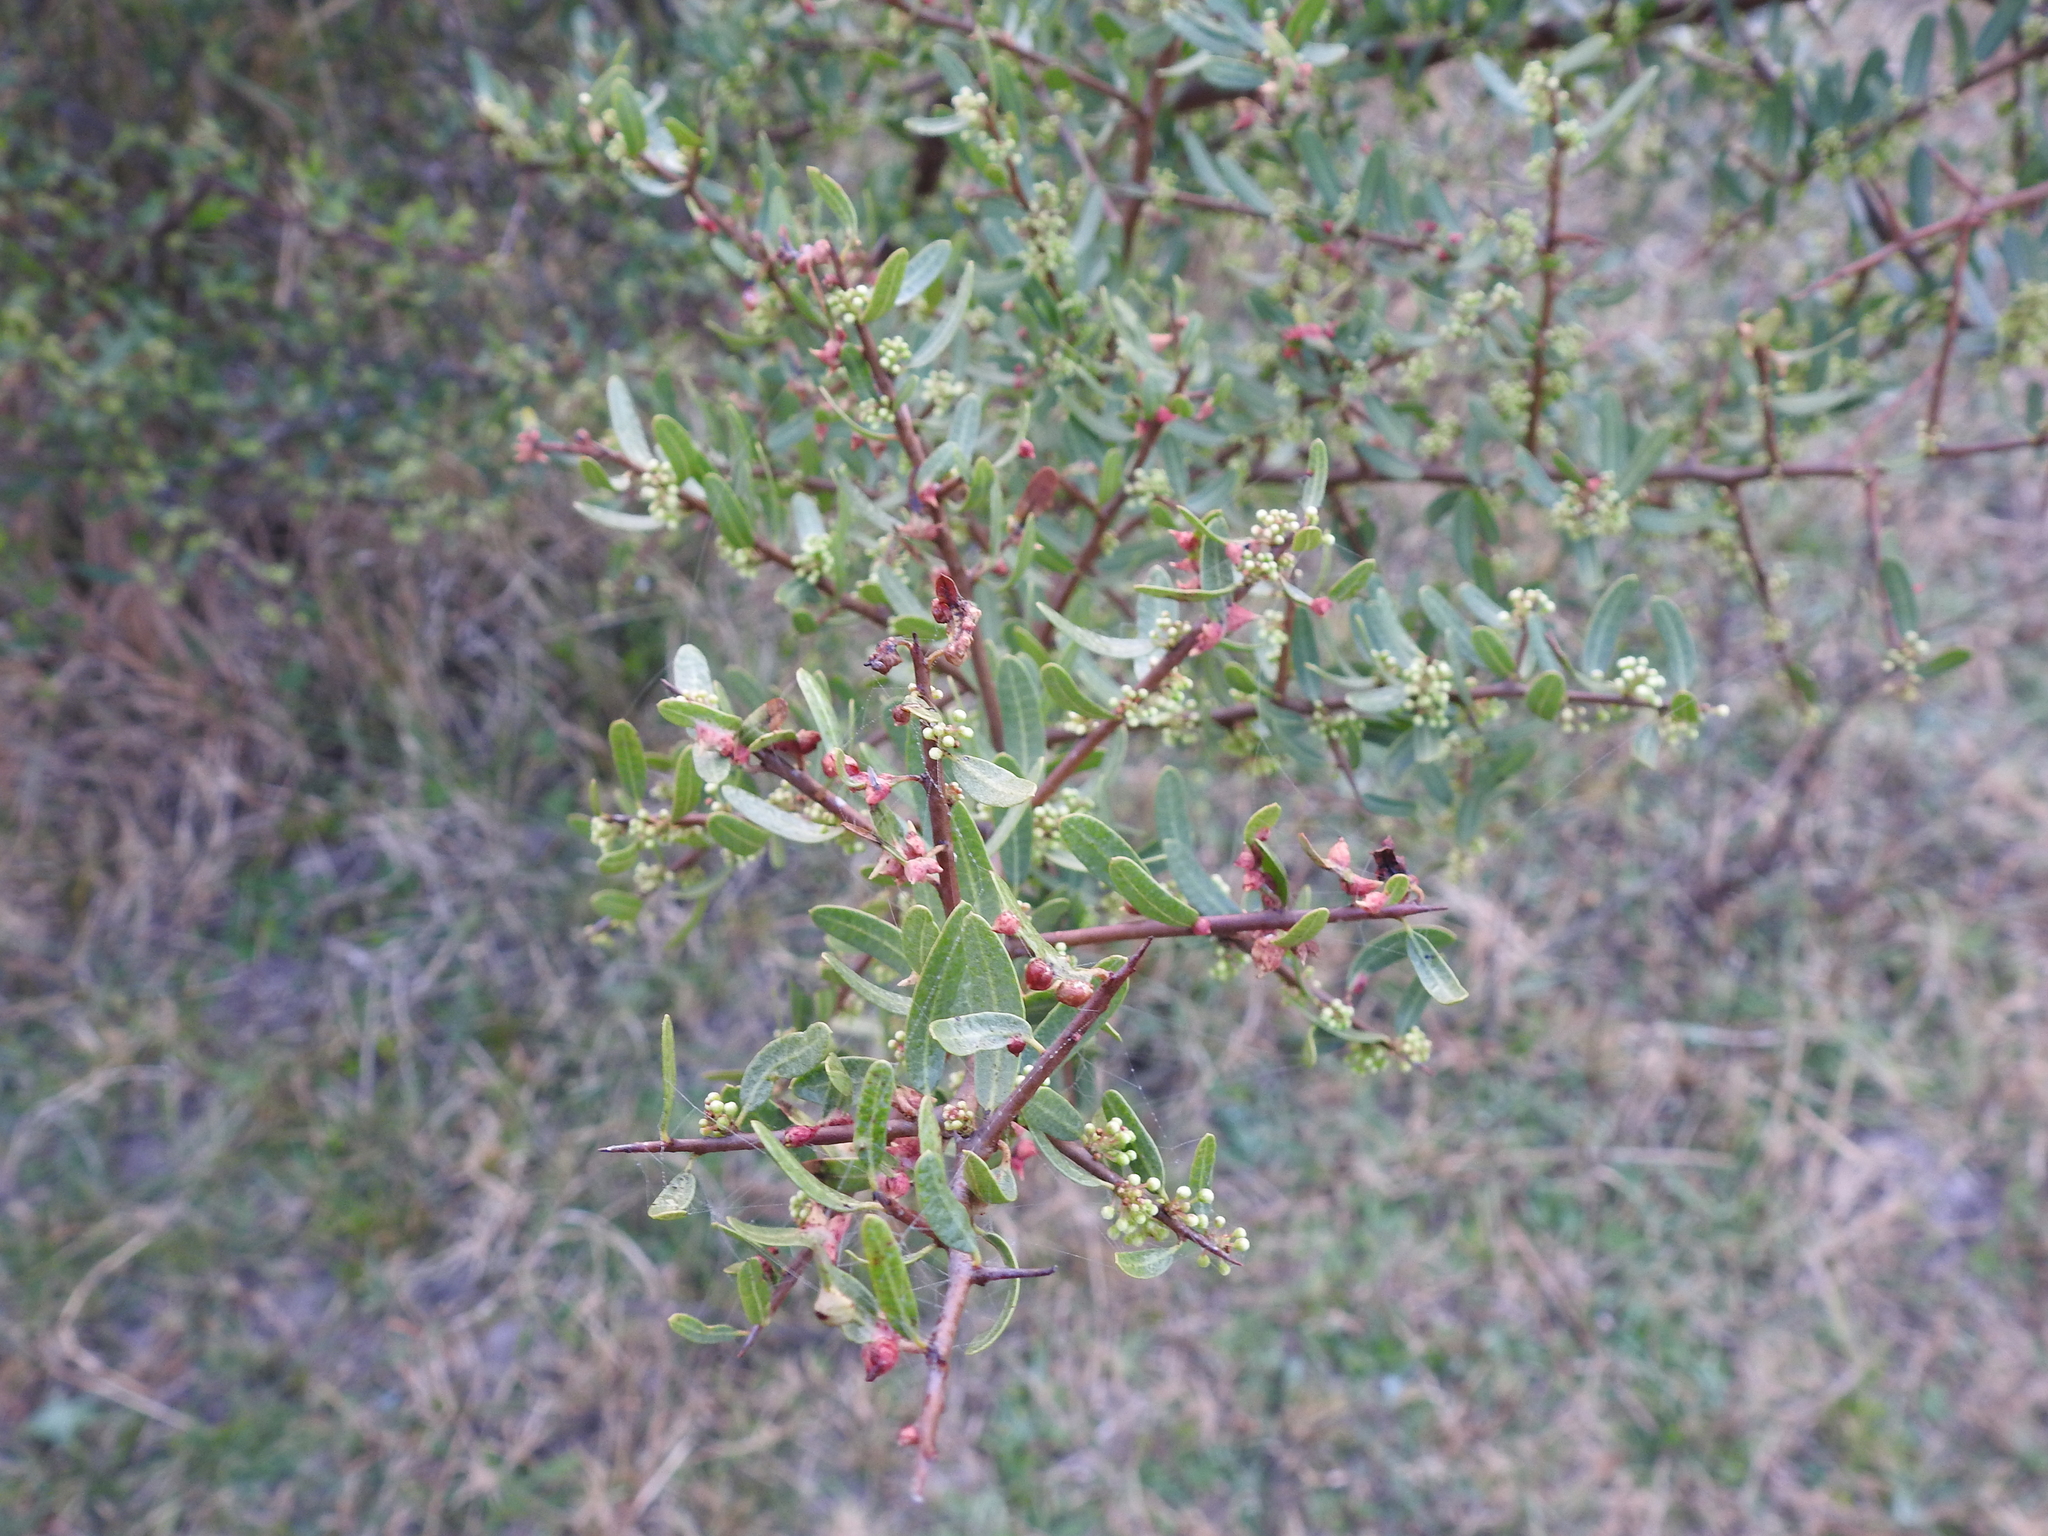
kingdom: Plantae
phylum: Tracheophyta
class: Magnoliopsida
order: Sapindales
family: Anacardiaceae
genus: Schinus
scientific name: Schinus longifolia
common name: Longleaf peppertree
